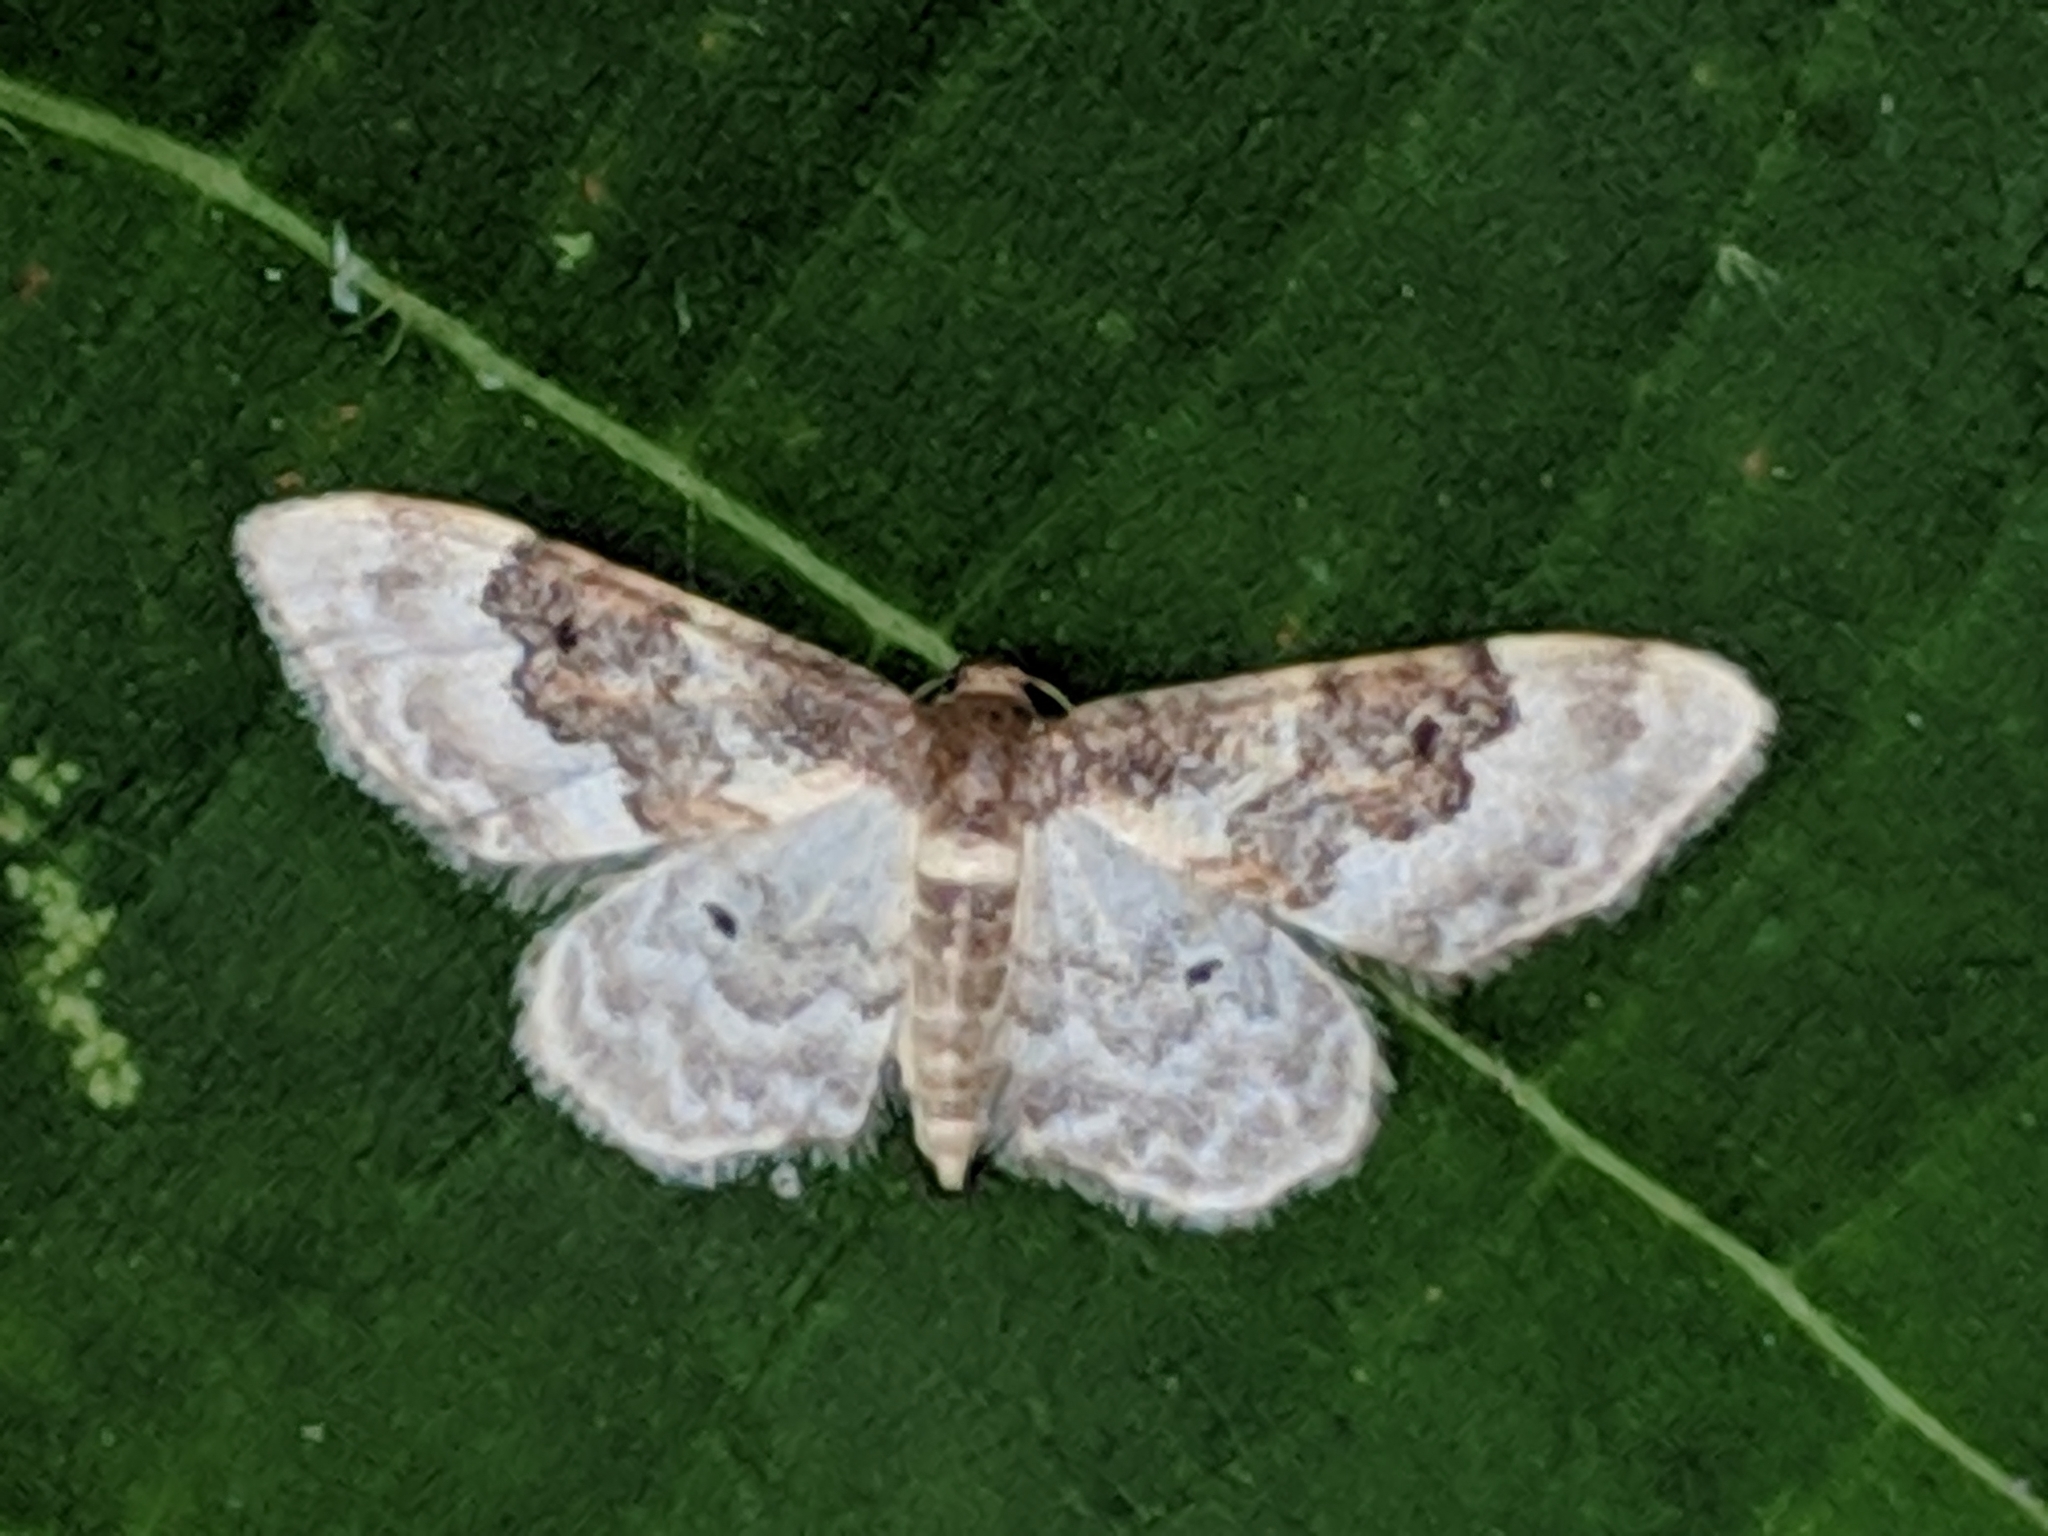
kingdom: Animalia
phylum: Arthropoda
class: Insecta
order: Lepidoptera
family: Geometridae
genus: Idaea
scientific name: Idaea rusticata
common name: Least carpet
